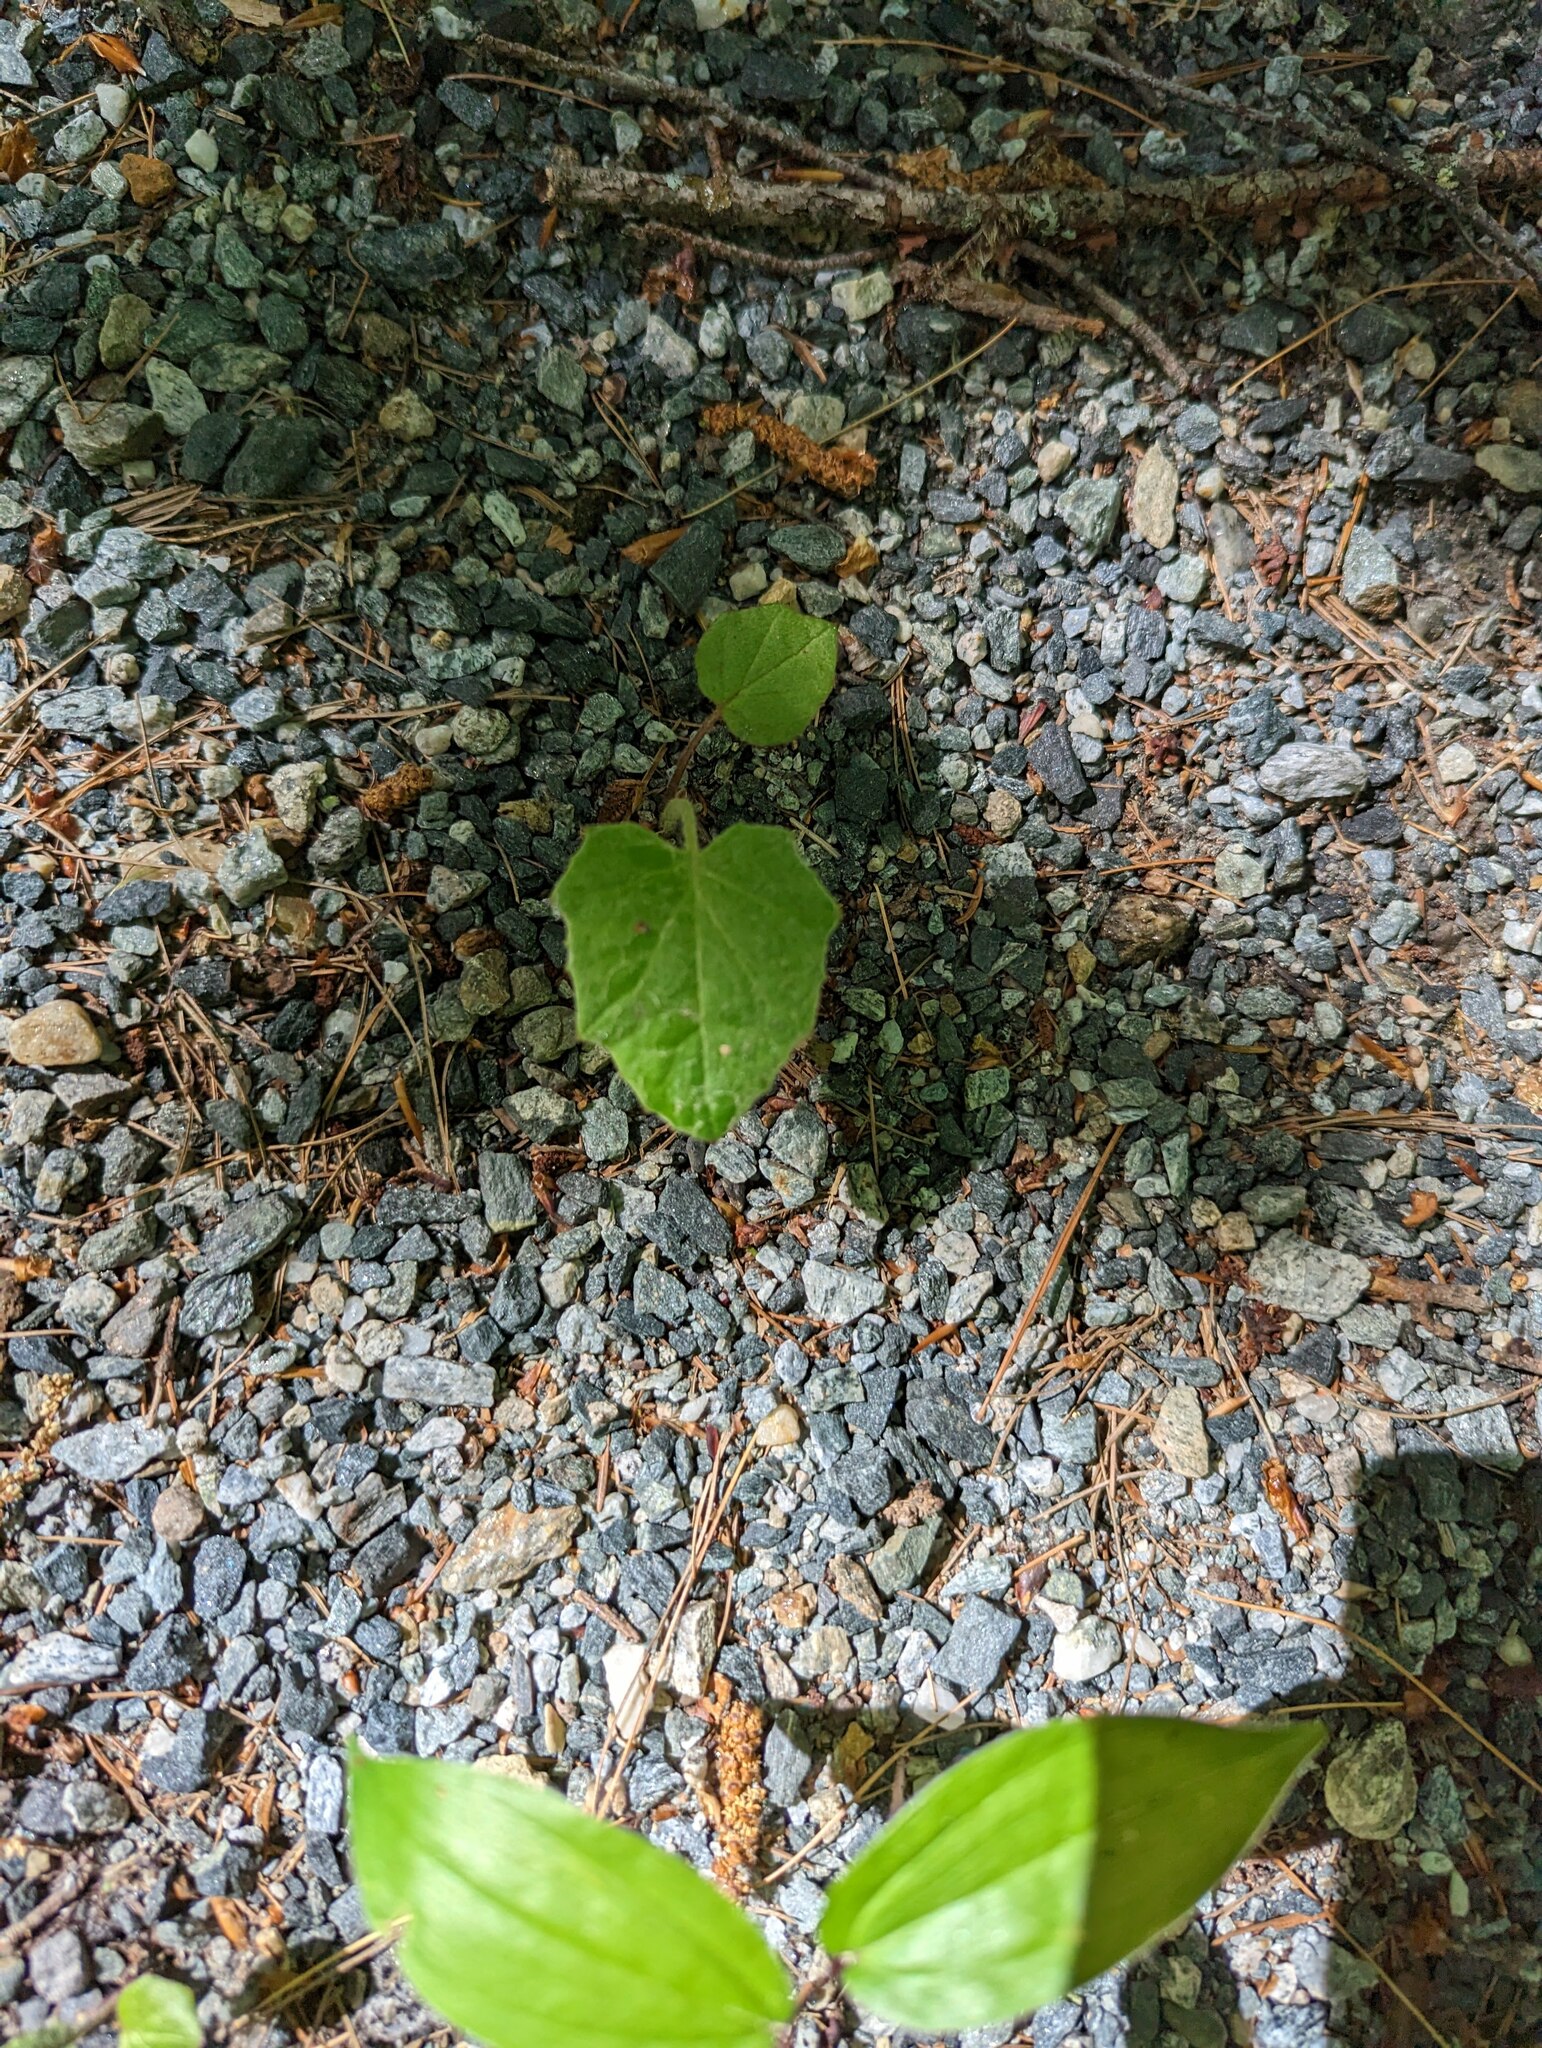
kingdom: Plantae
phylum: Tracheophyta
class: Magnoliopsida
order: Asterales
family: Asteraceae
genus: Tussilago
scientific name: Tussilago farfara
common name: Coltsfoot
